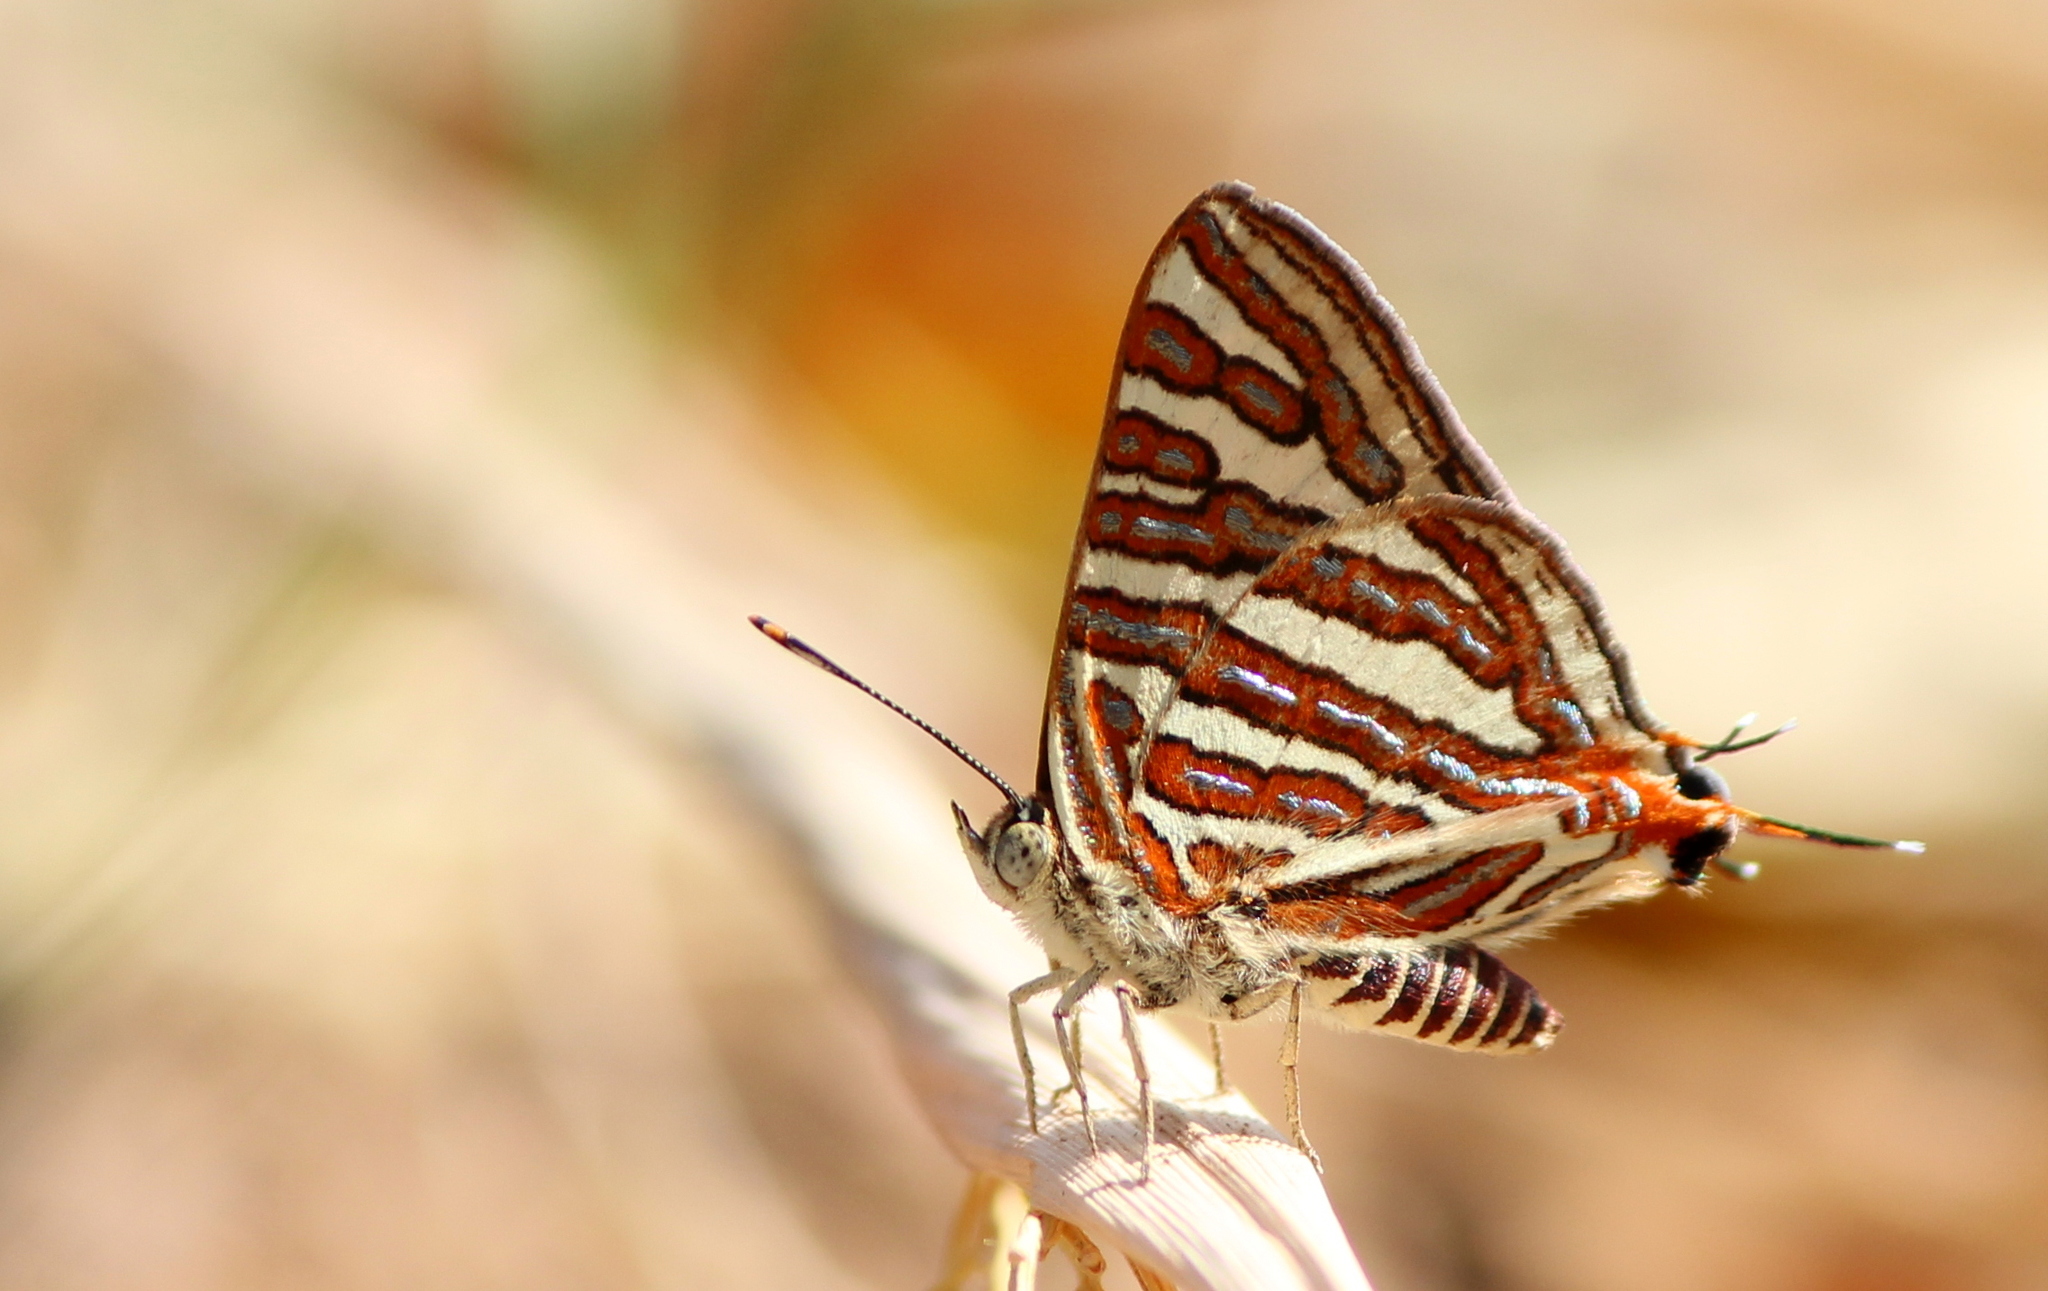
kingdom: Animalia
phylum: Arthropoda
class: Insecta
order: Lepidoptera
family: Lycaenidae
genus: Cigaritis
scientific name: Cigaritis vulcanus
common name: Common silverline
